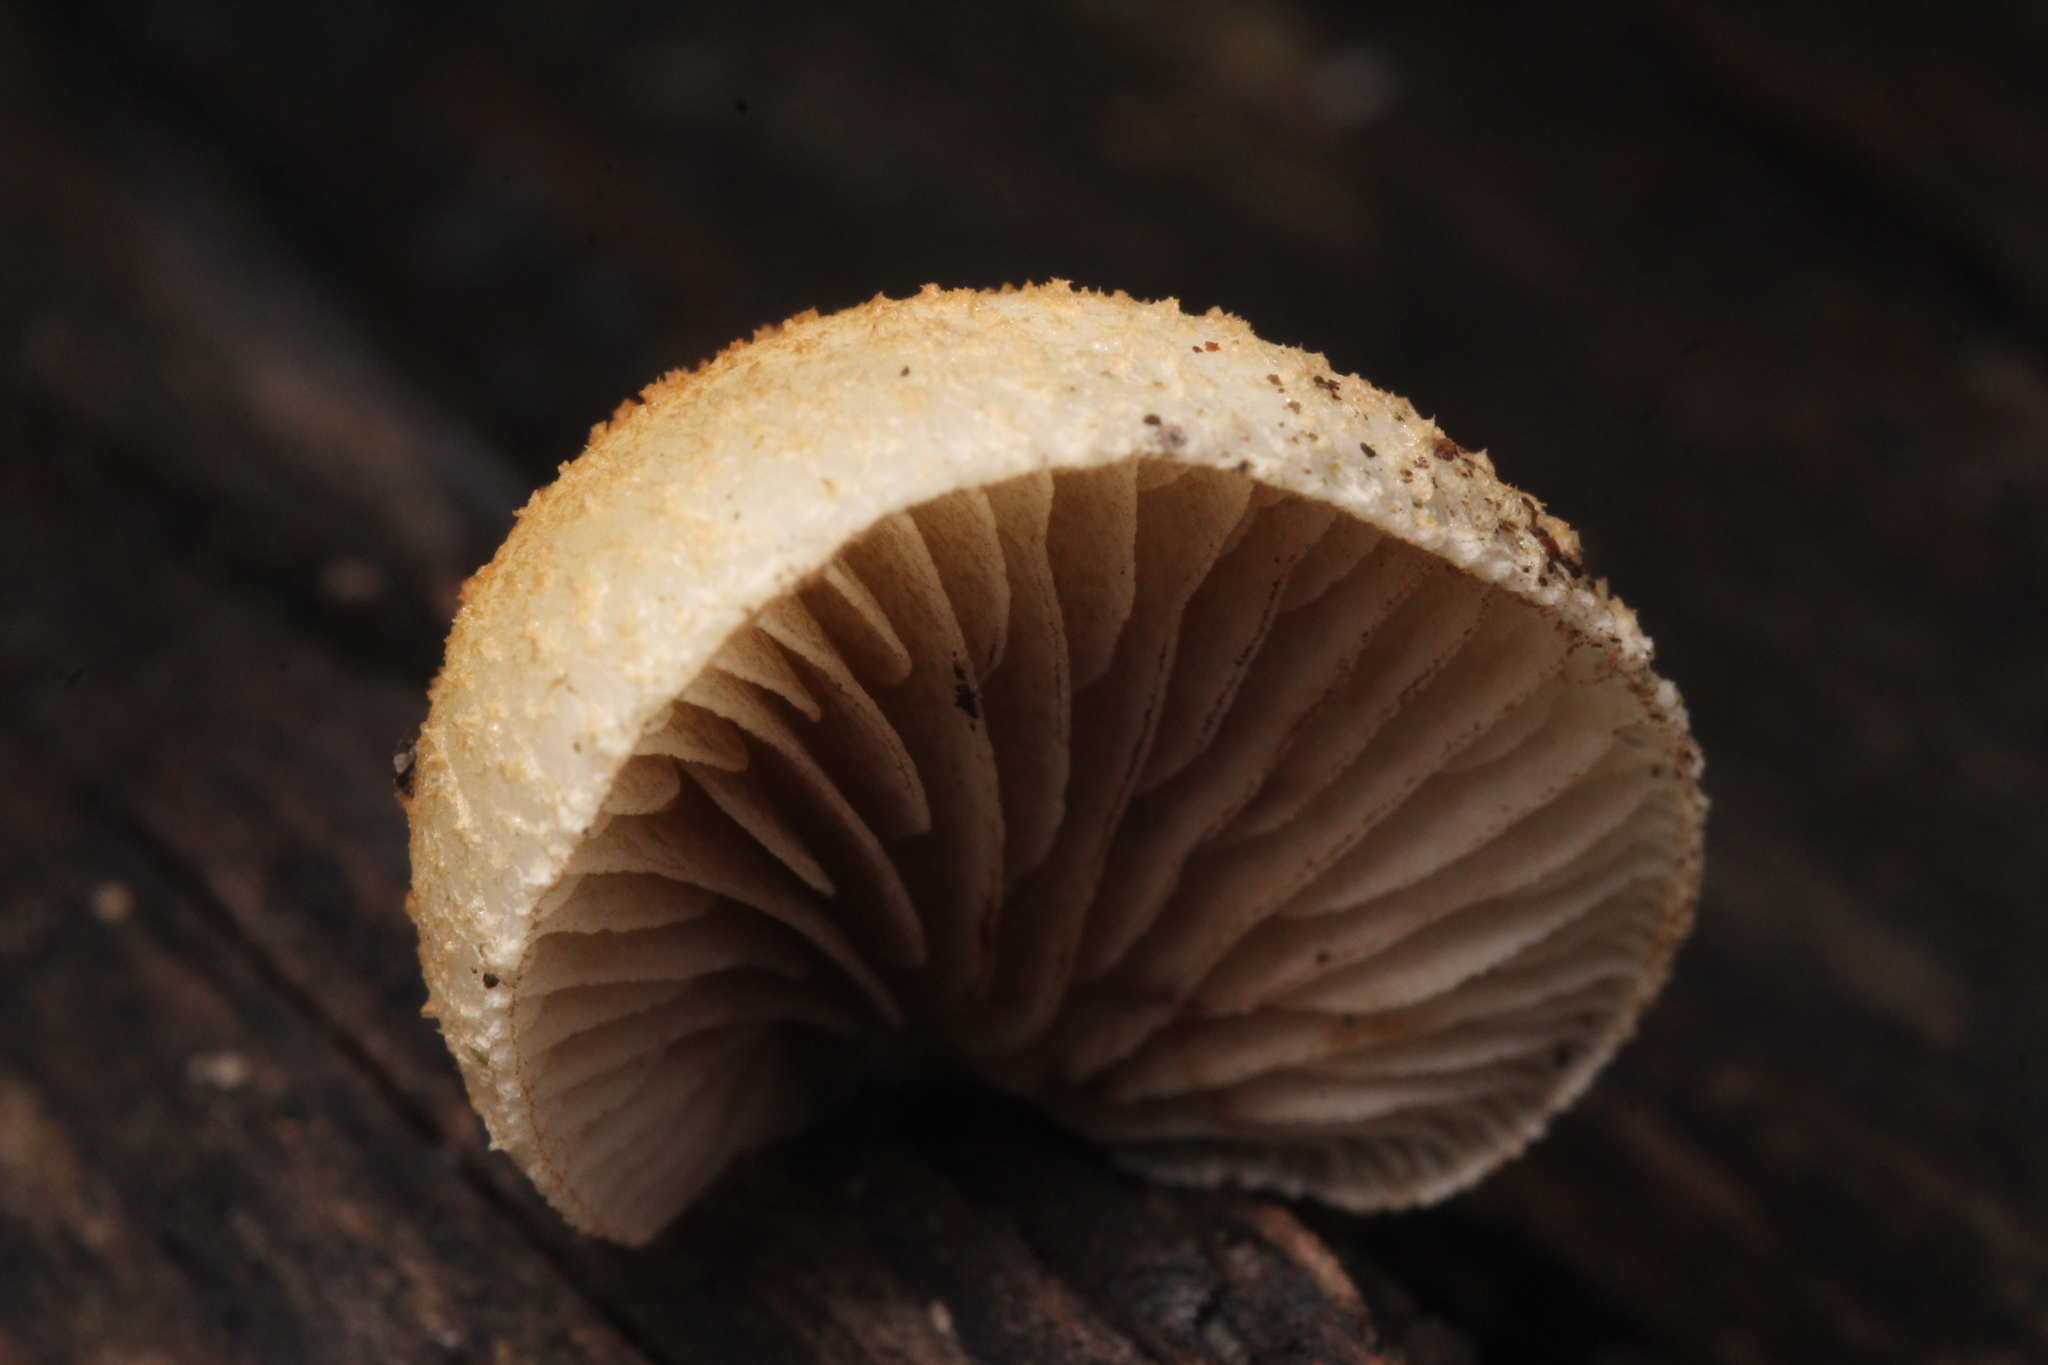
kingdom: Fungi
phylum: Basidiomycota
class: Agaricomycetes
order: Agaricales
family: Crepidotaceae
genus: Crepidotus
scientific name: Crepidotus mollis
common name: Peeling oysterling
